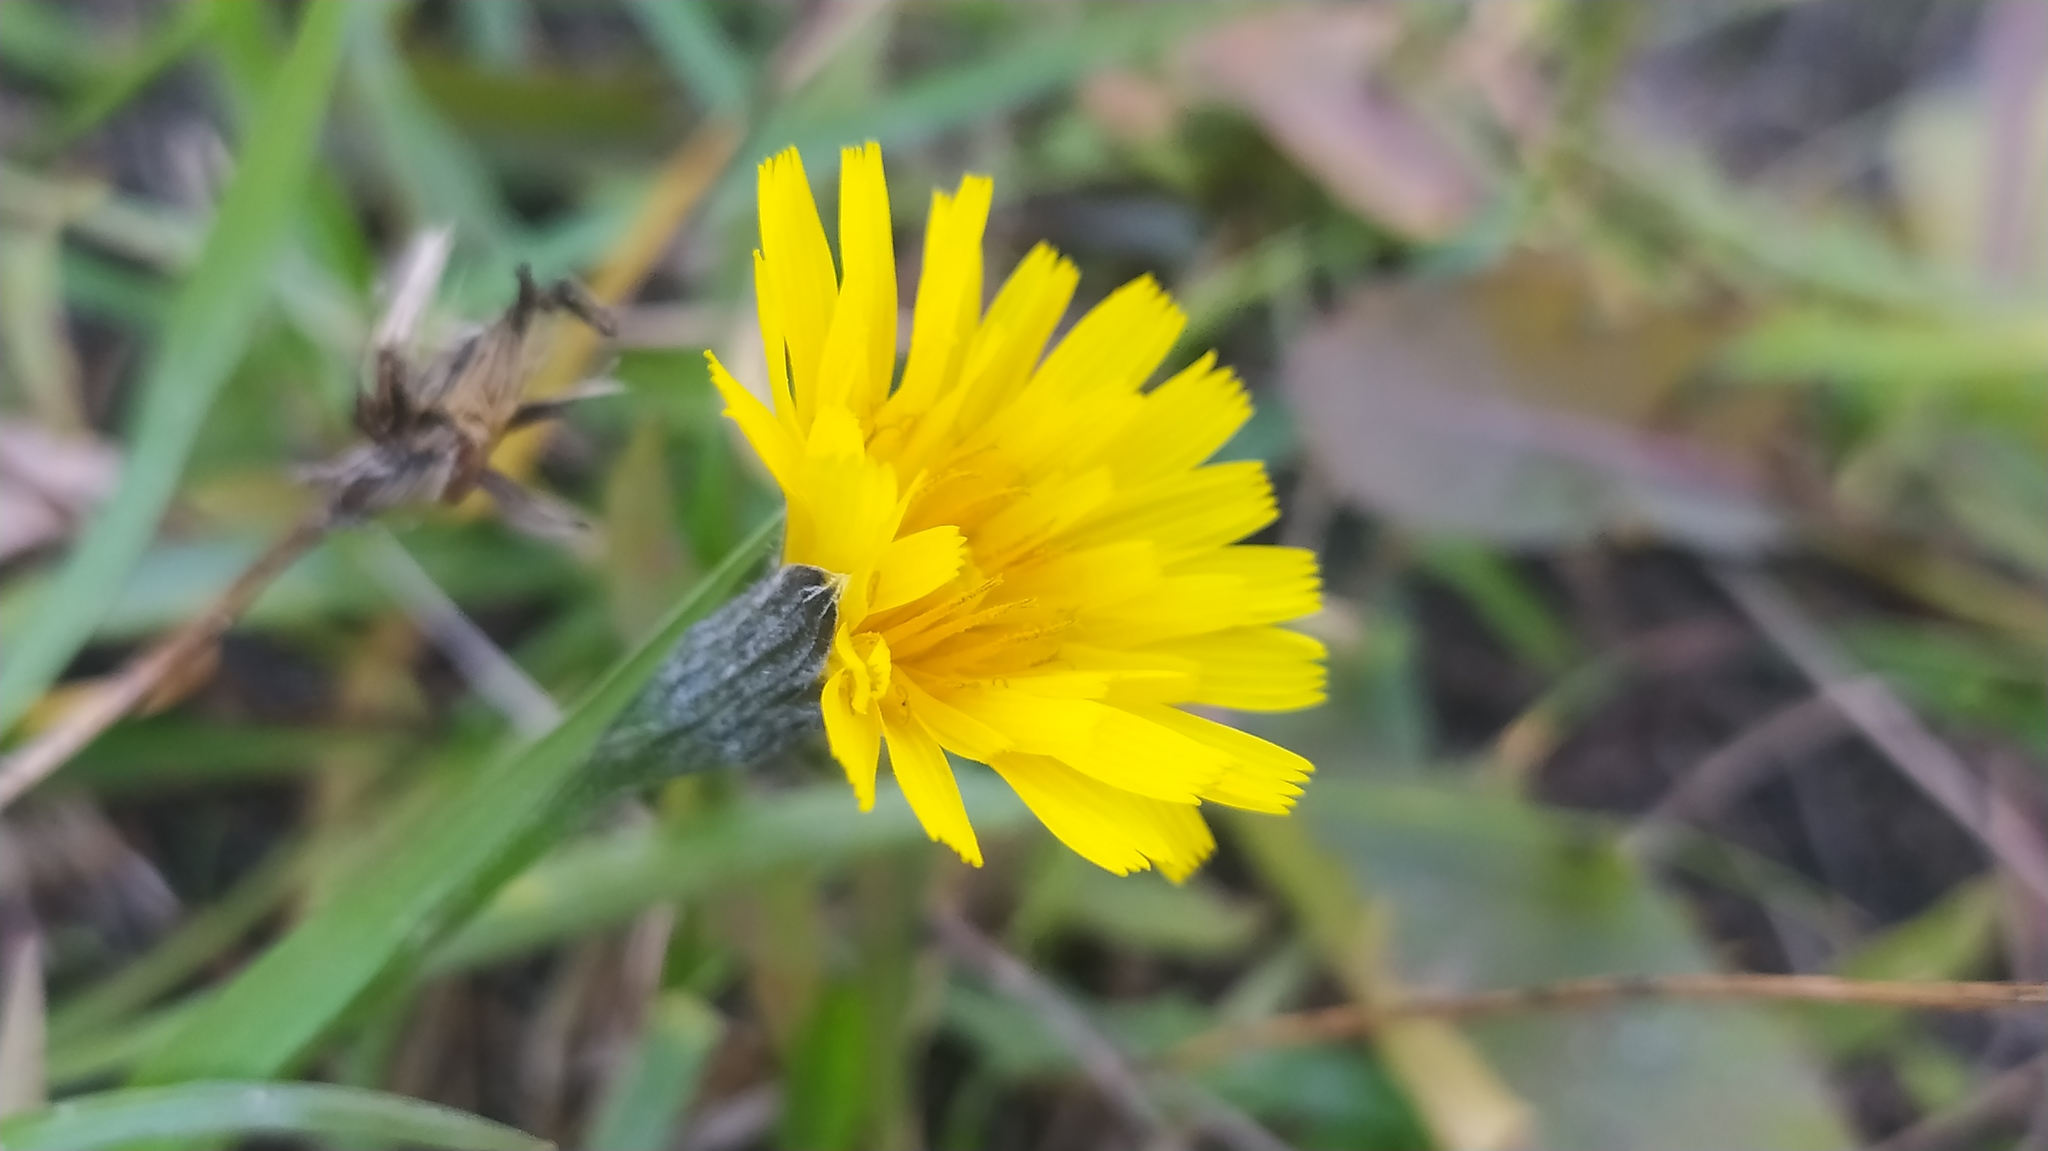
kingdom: Plantae
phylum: Tracheophyta
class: Magnoliopsida
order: Asterales
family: Asteraceae
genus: Scorzoneroides
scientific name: Scorzoneroides autumnalis
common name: Autumn hawkbit
